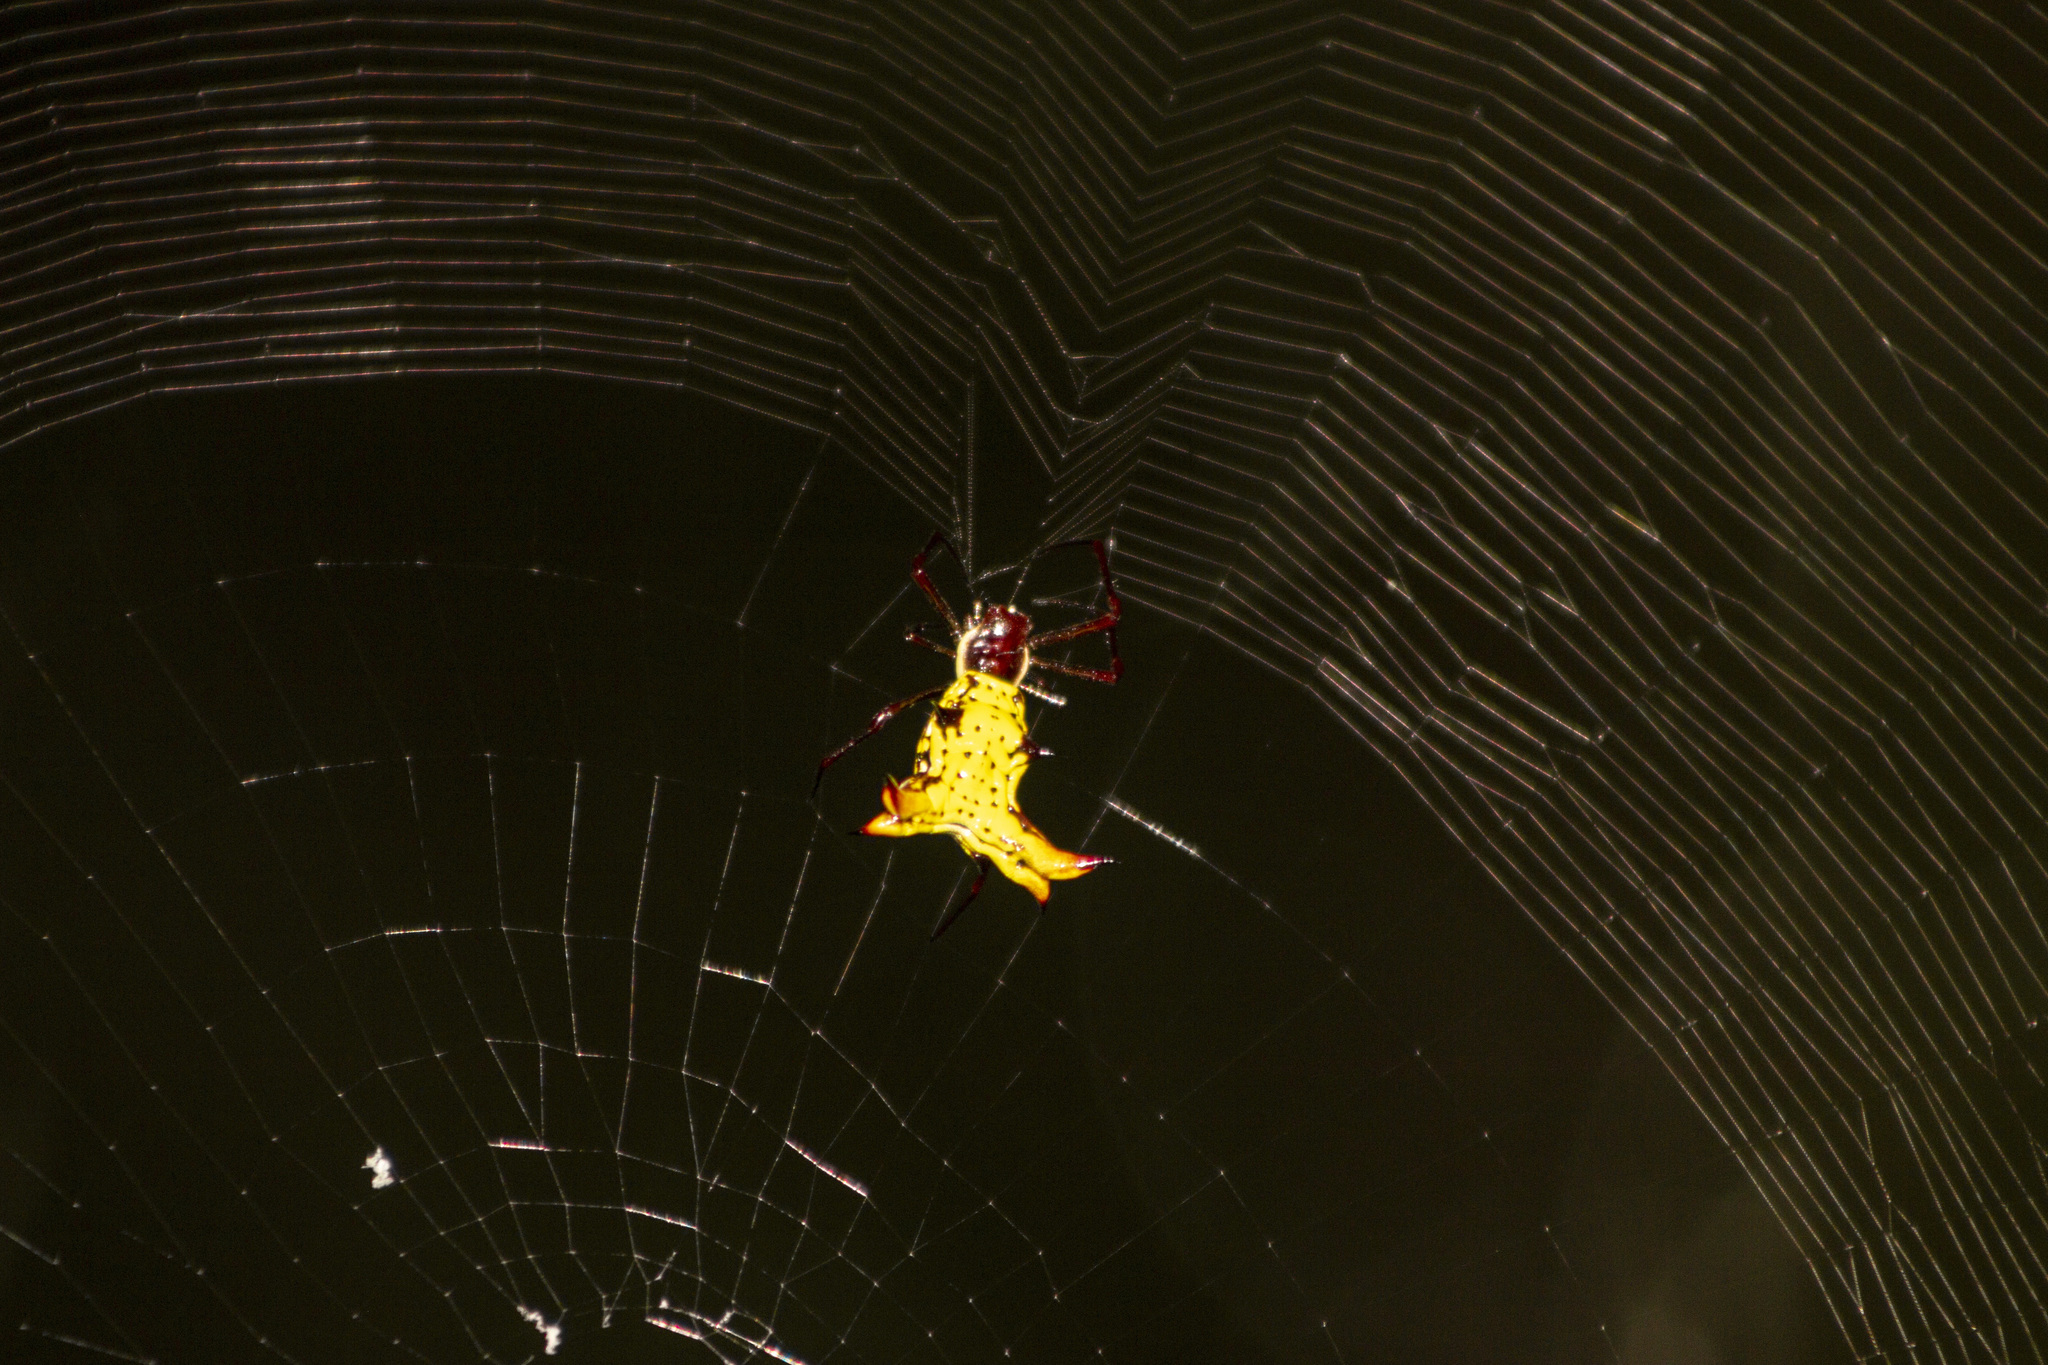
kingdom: Animalia
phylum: Arthropoda
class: Arachnida
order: Araneae
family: Araneidae
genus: Micrathena
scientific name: Micrathena fissispina
